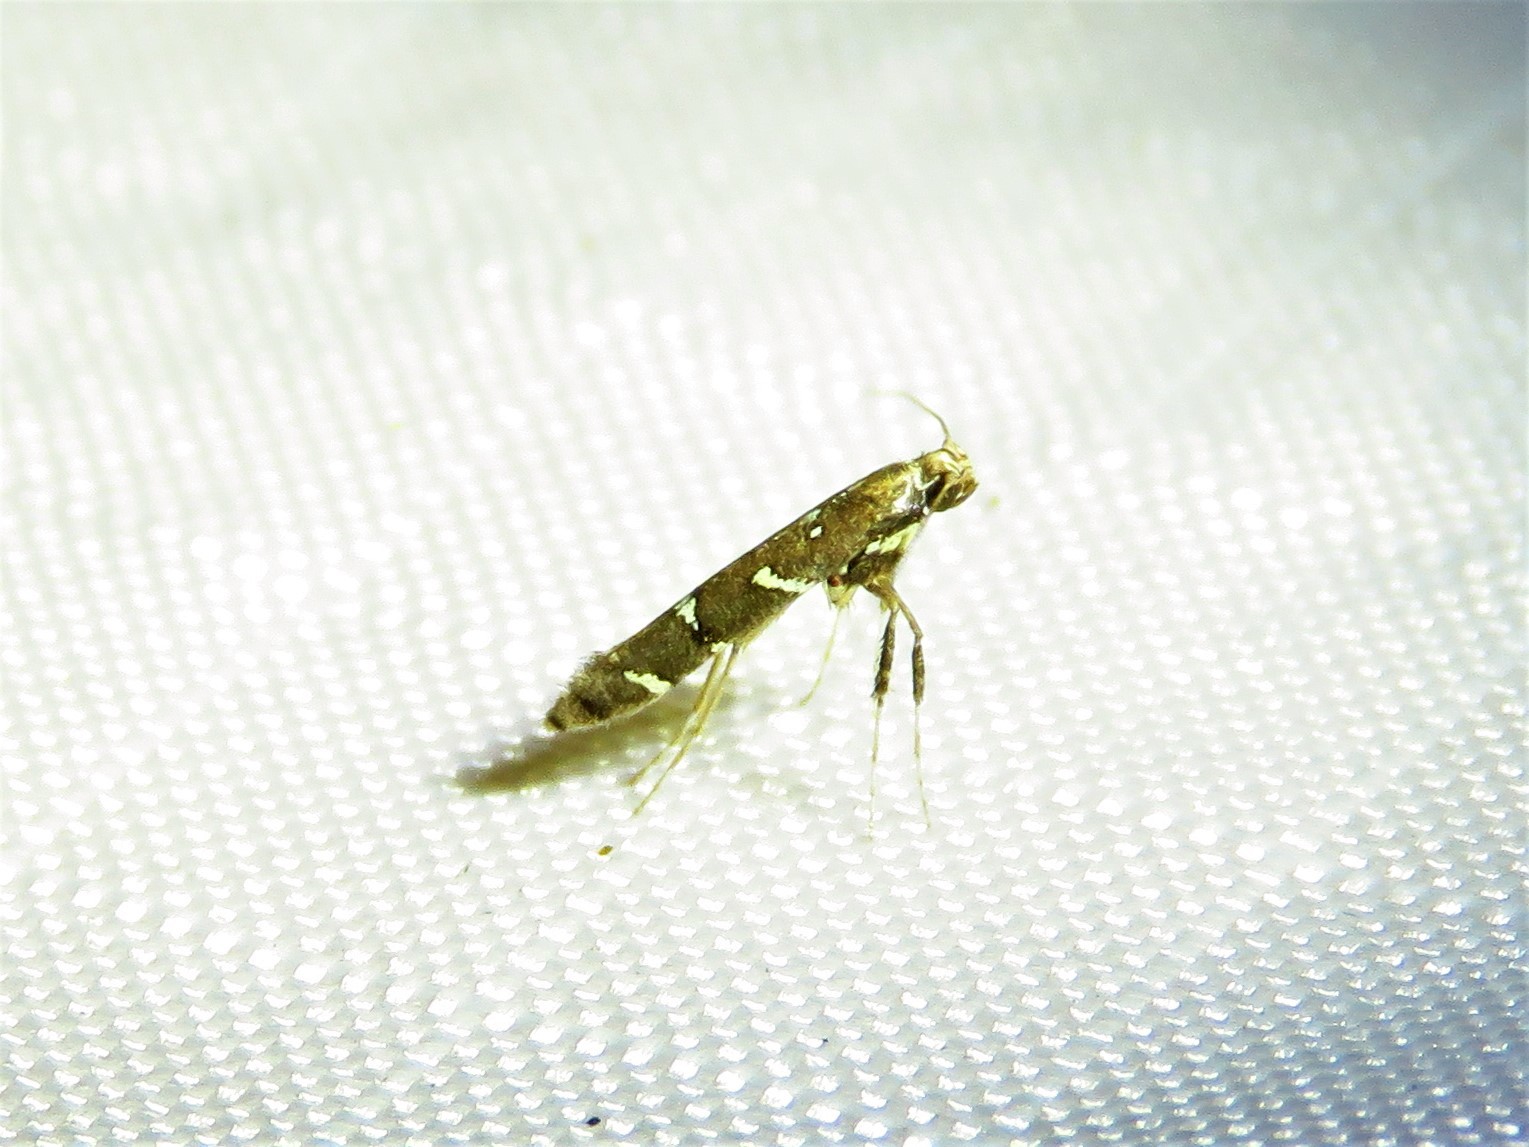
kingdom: Animalia
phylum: Arthropoda
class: Insecta
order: Lepidoptera
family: Gracillariidae
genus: Caloptilia
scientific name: Caloptilia triadicae
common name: Tallow leaf roller
